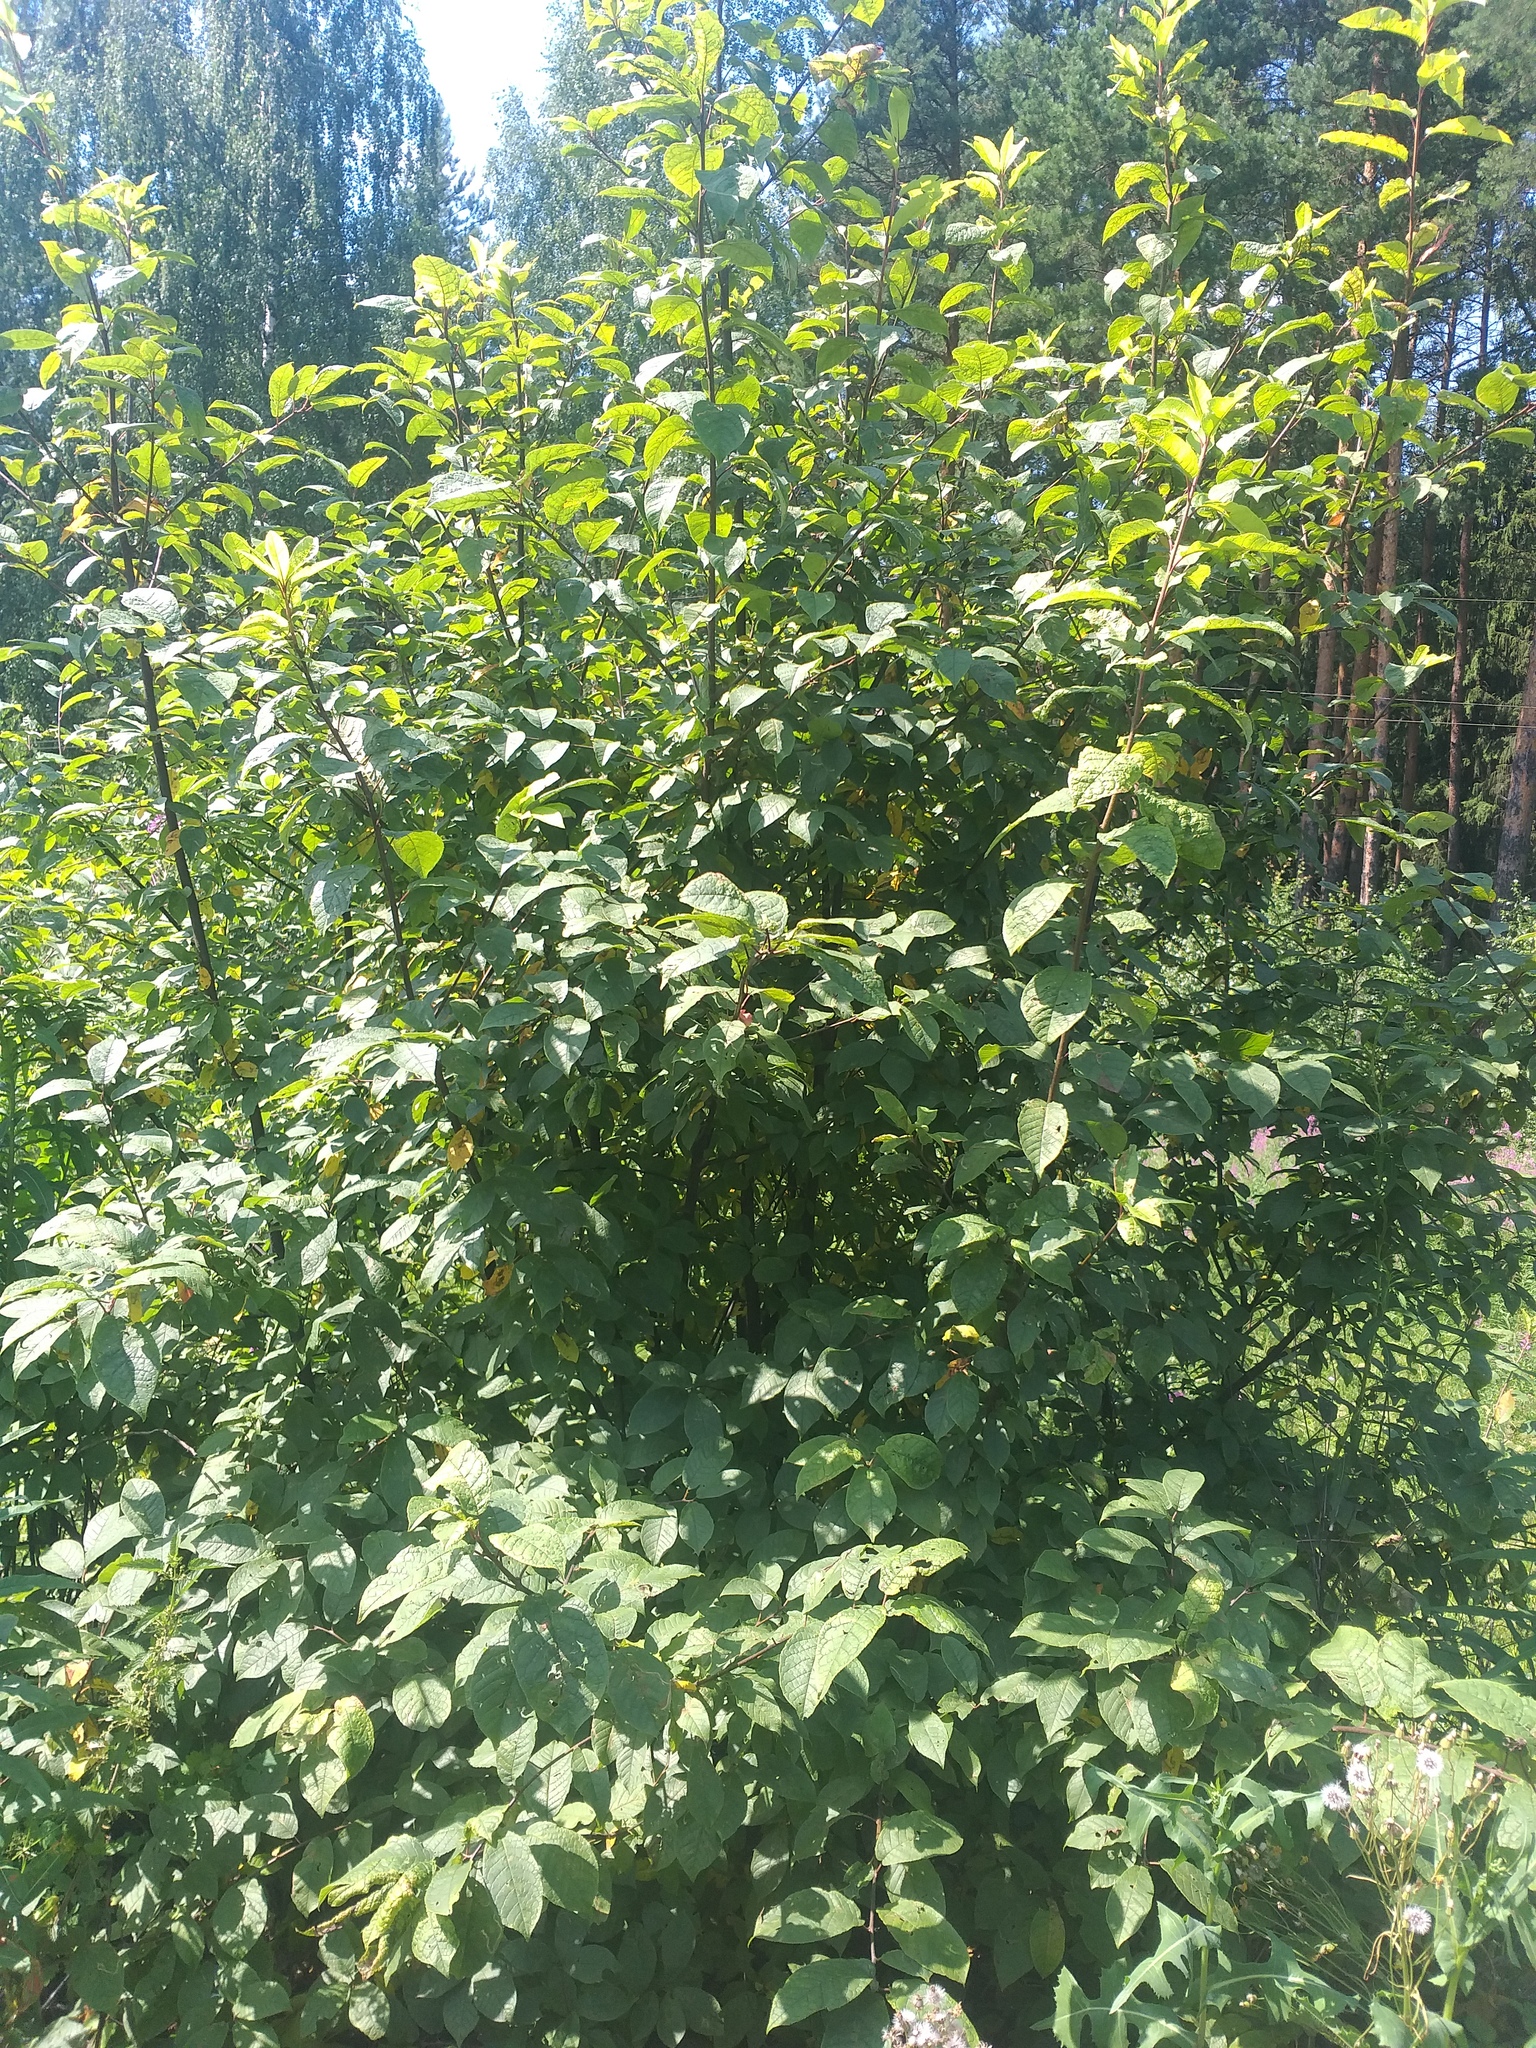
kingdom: Plantae
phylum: Tracheophyta
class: Magnoliopsida
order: Rosales
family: Rosaceae
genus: Prunus
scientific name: Prunus padus
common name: Bird cherry
